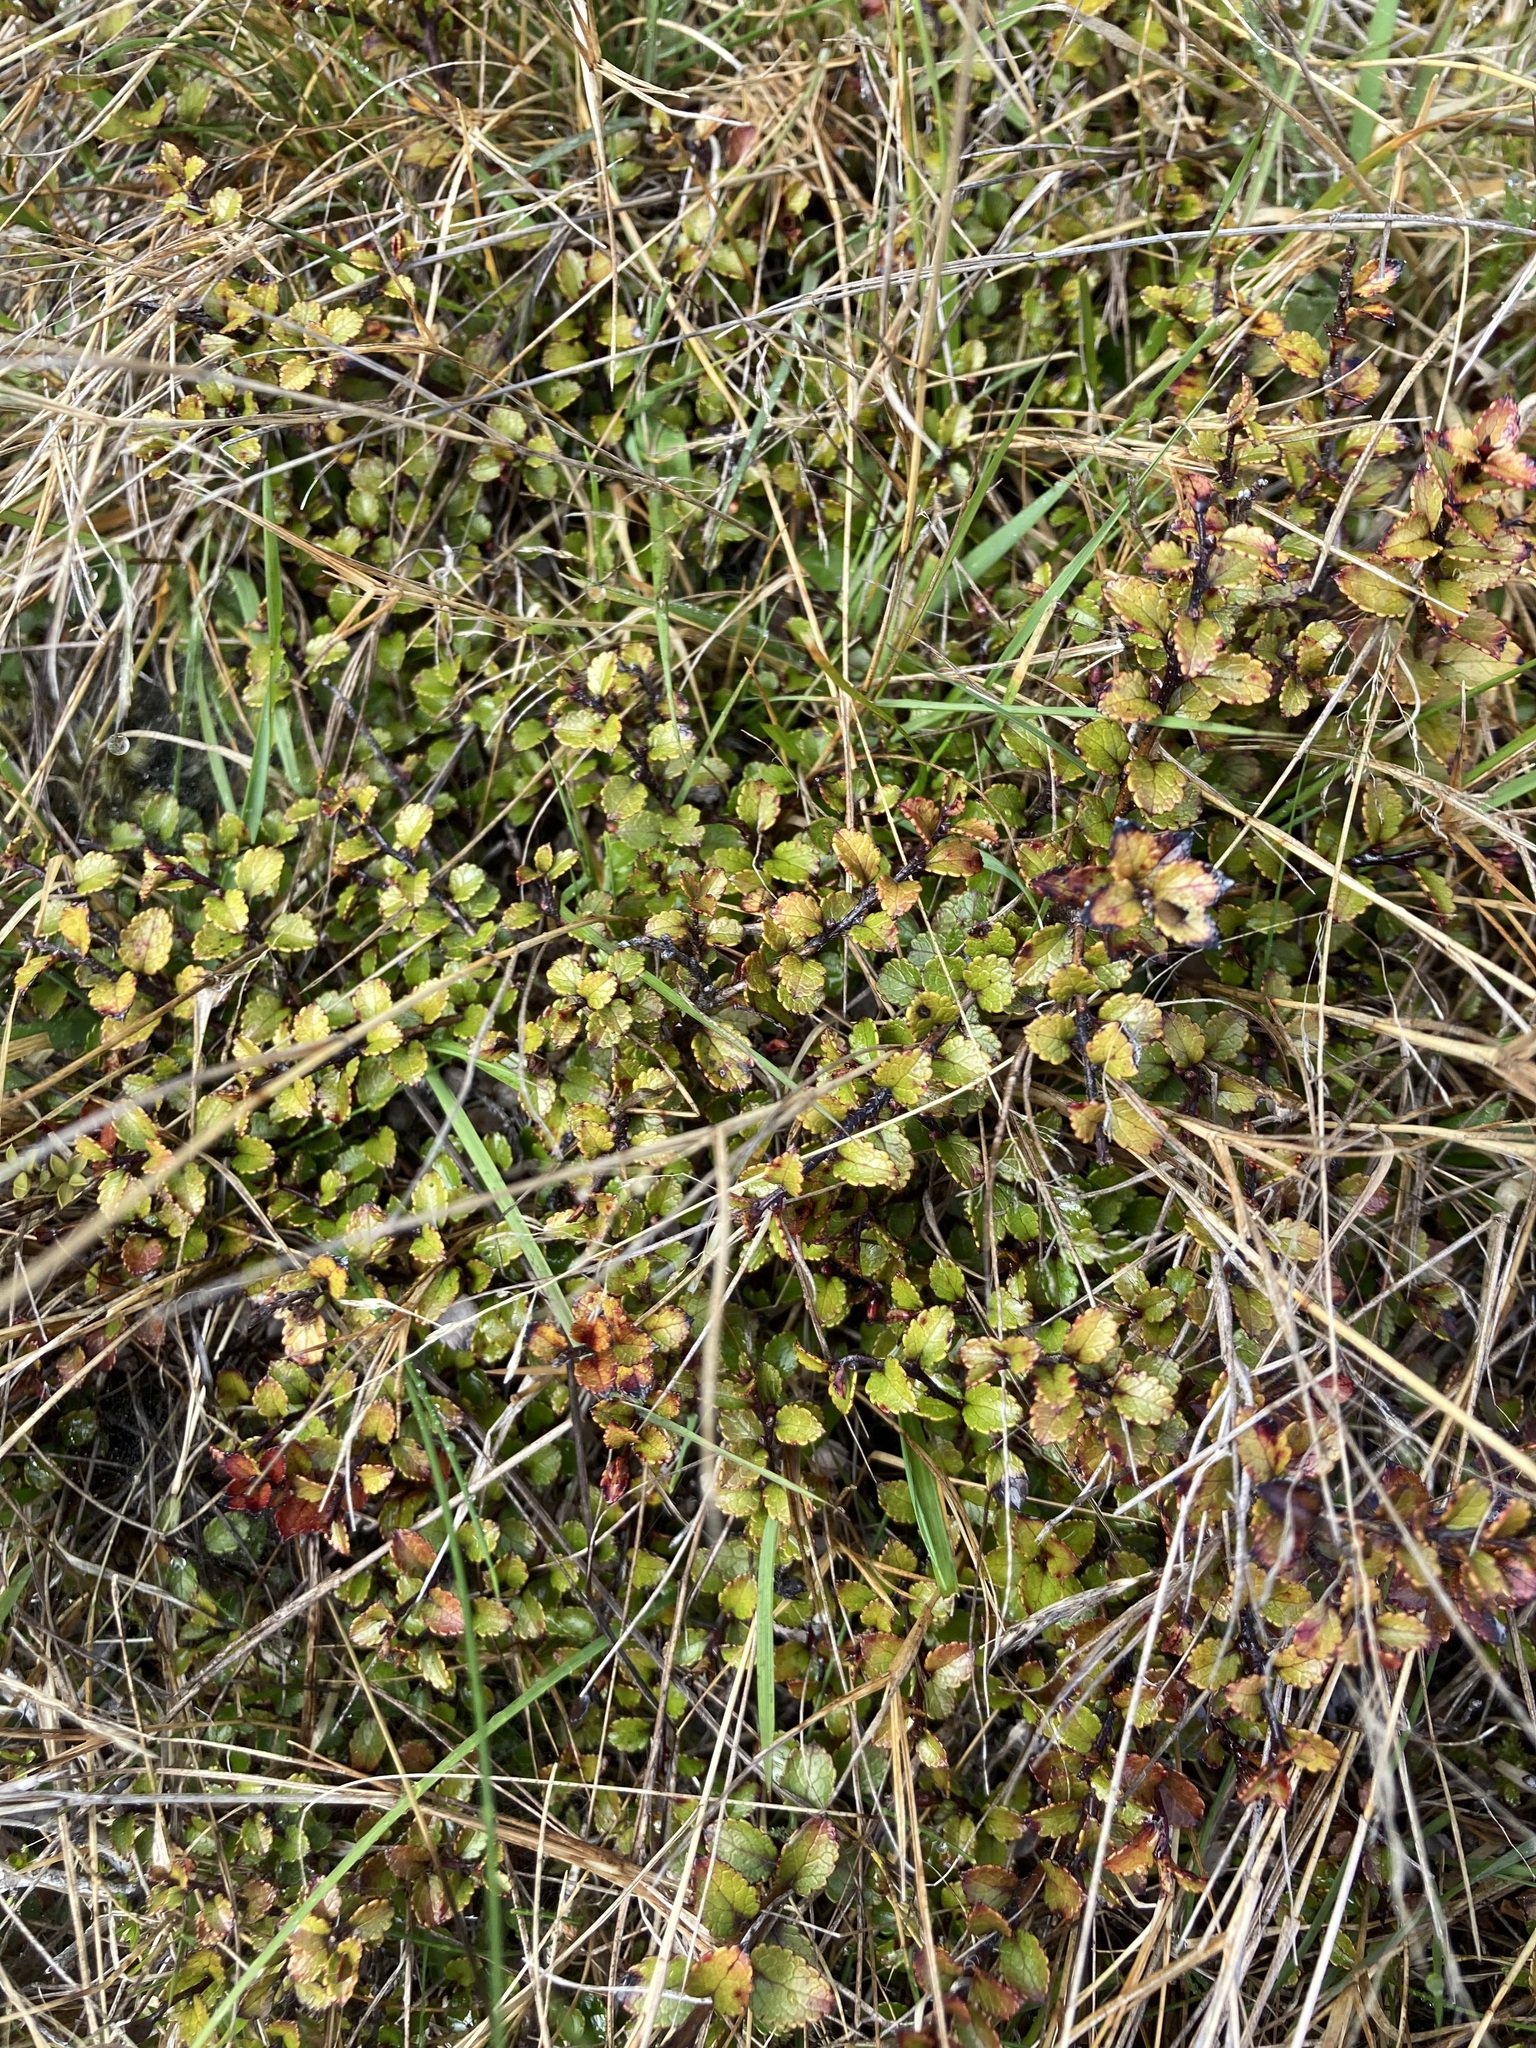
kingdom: Plantae
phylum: Tracheophyta
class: Magnoliopsida
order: Ericales
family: Ericaceae
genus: Gaultheria
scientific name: Gaultheria depressa
